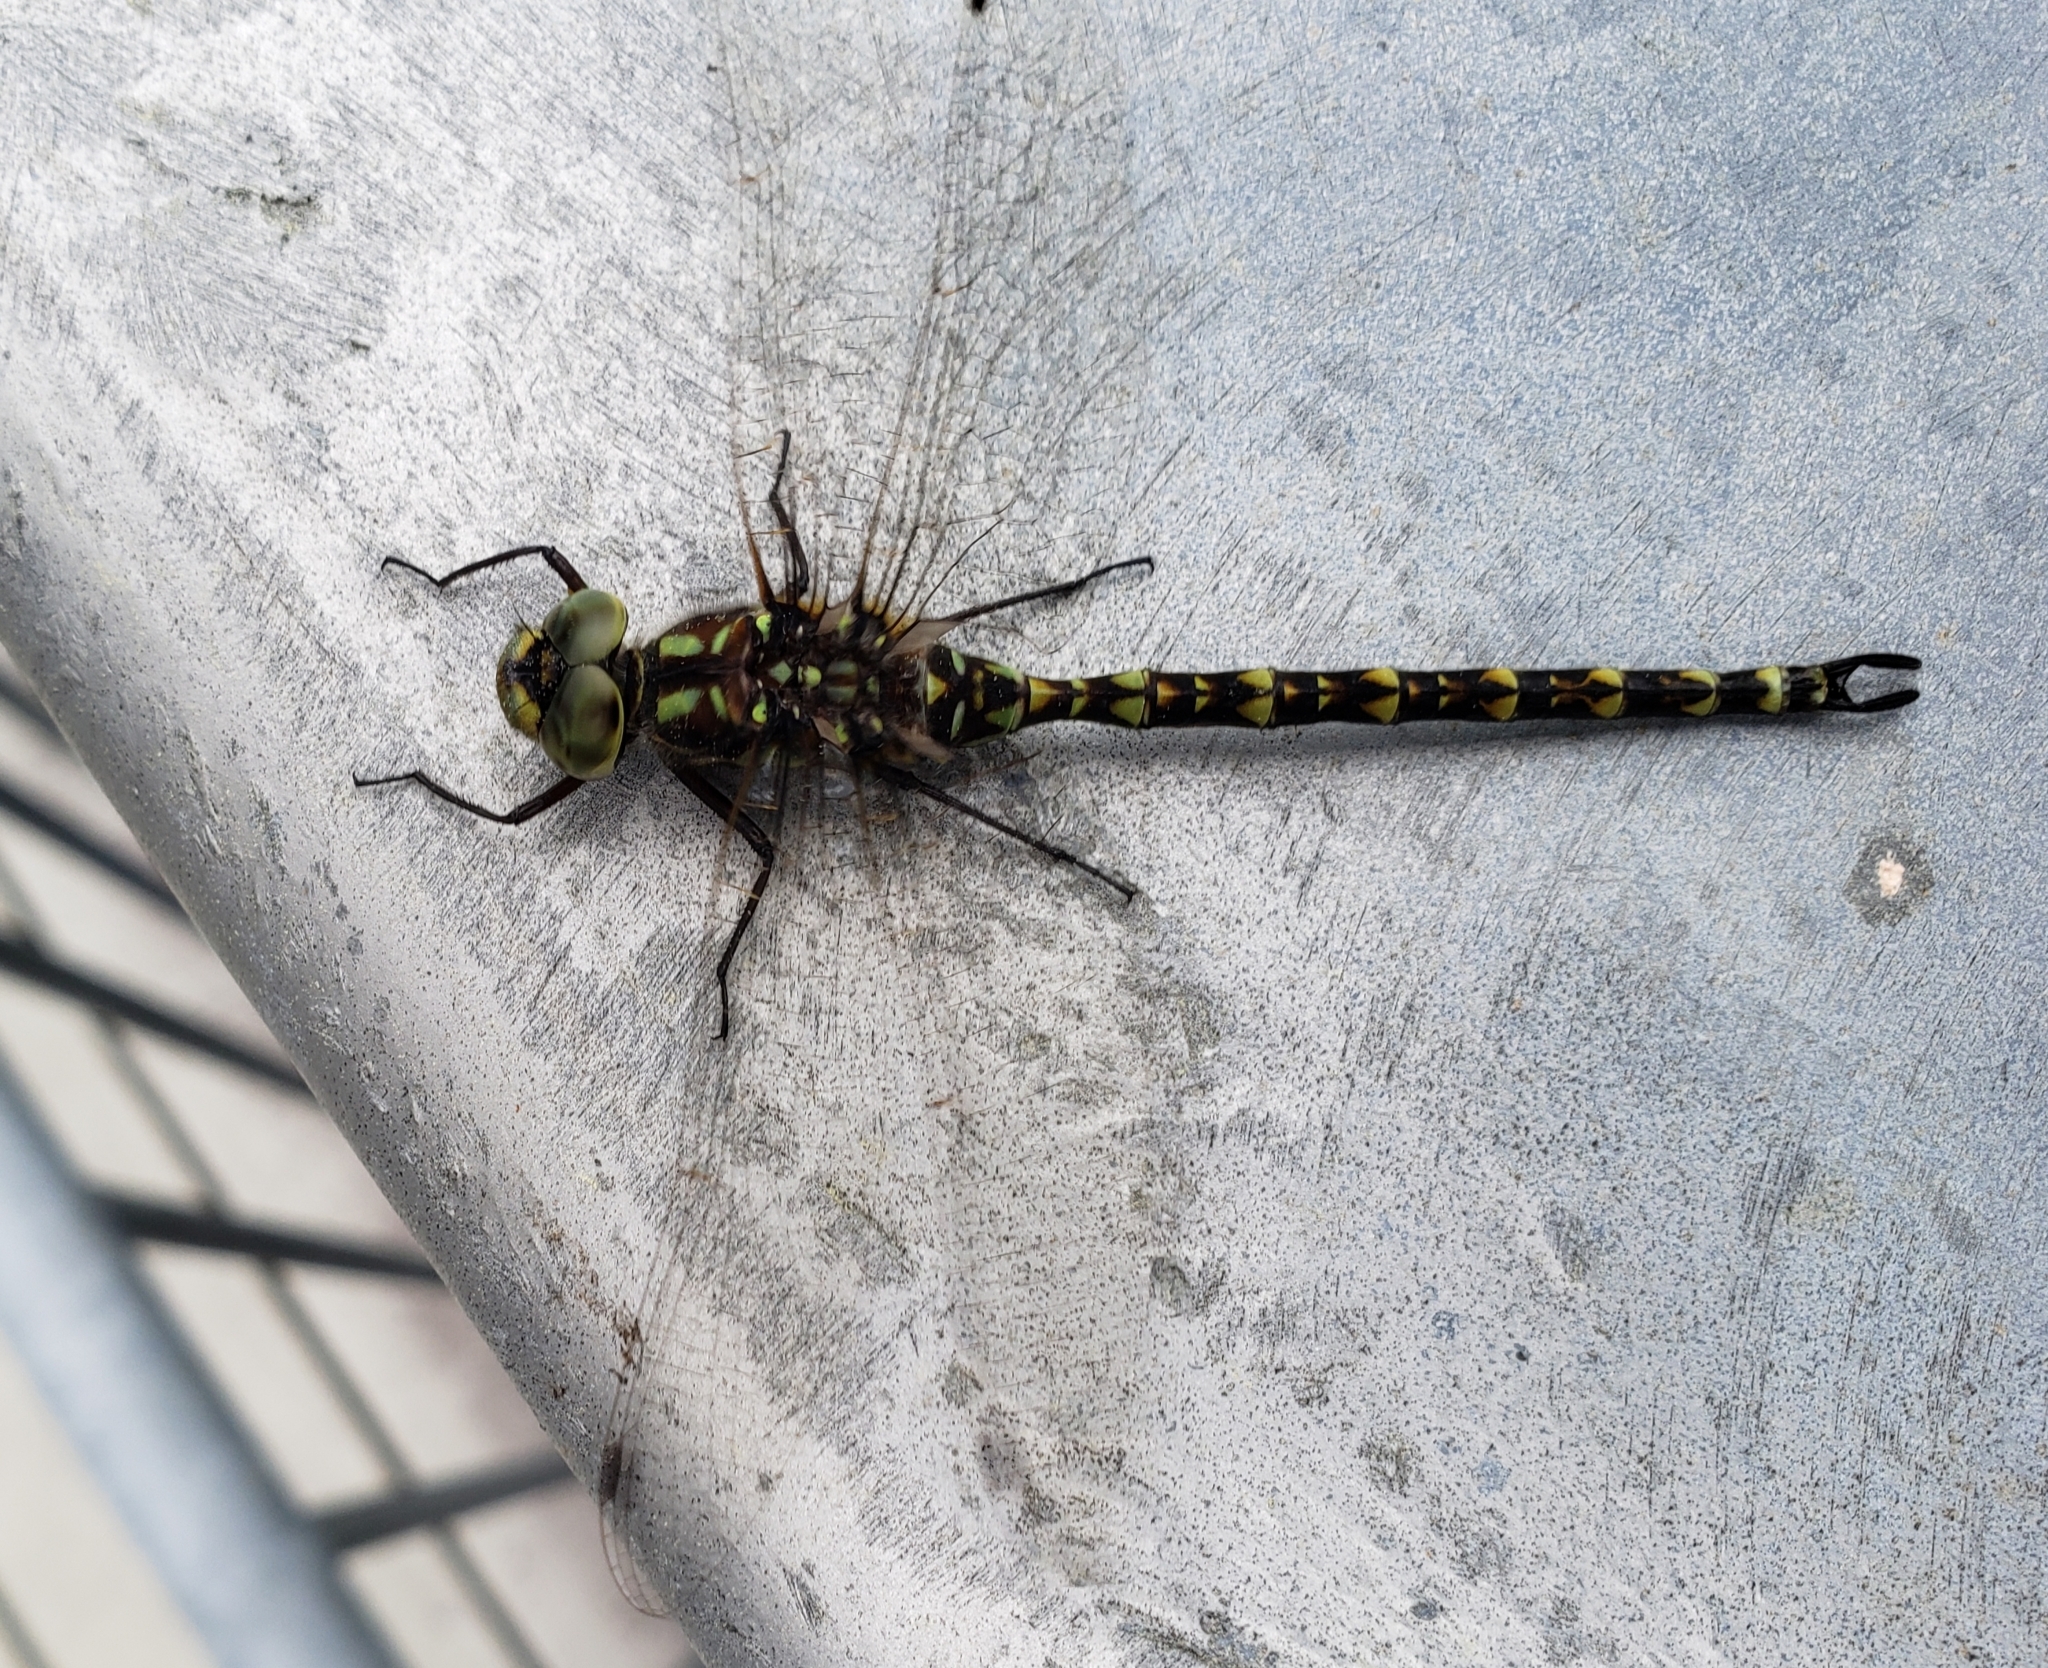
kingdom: Animalia
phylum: Arthropoda
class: Insecta
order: Odonata
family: Aeshnidae
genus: Gomphaeschna
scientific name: Gomphaeschna furcillata
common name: Harlequin darner
